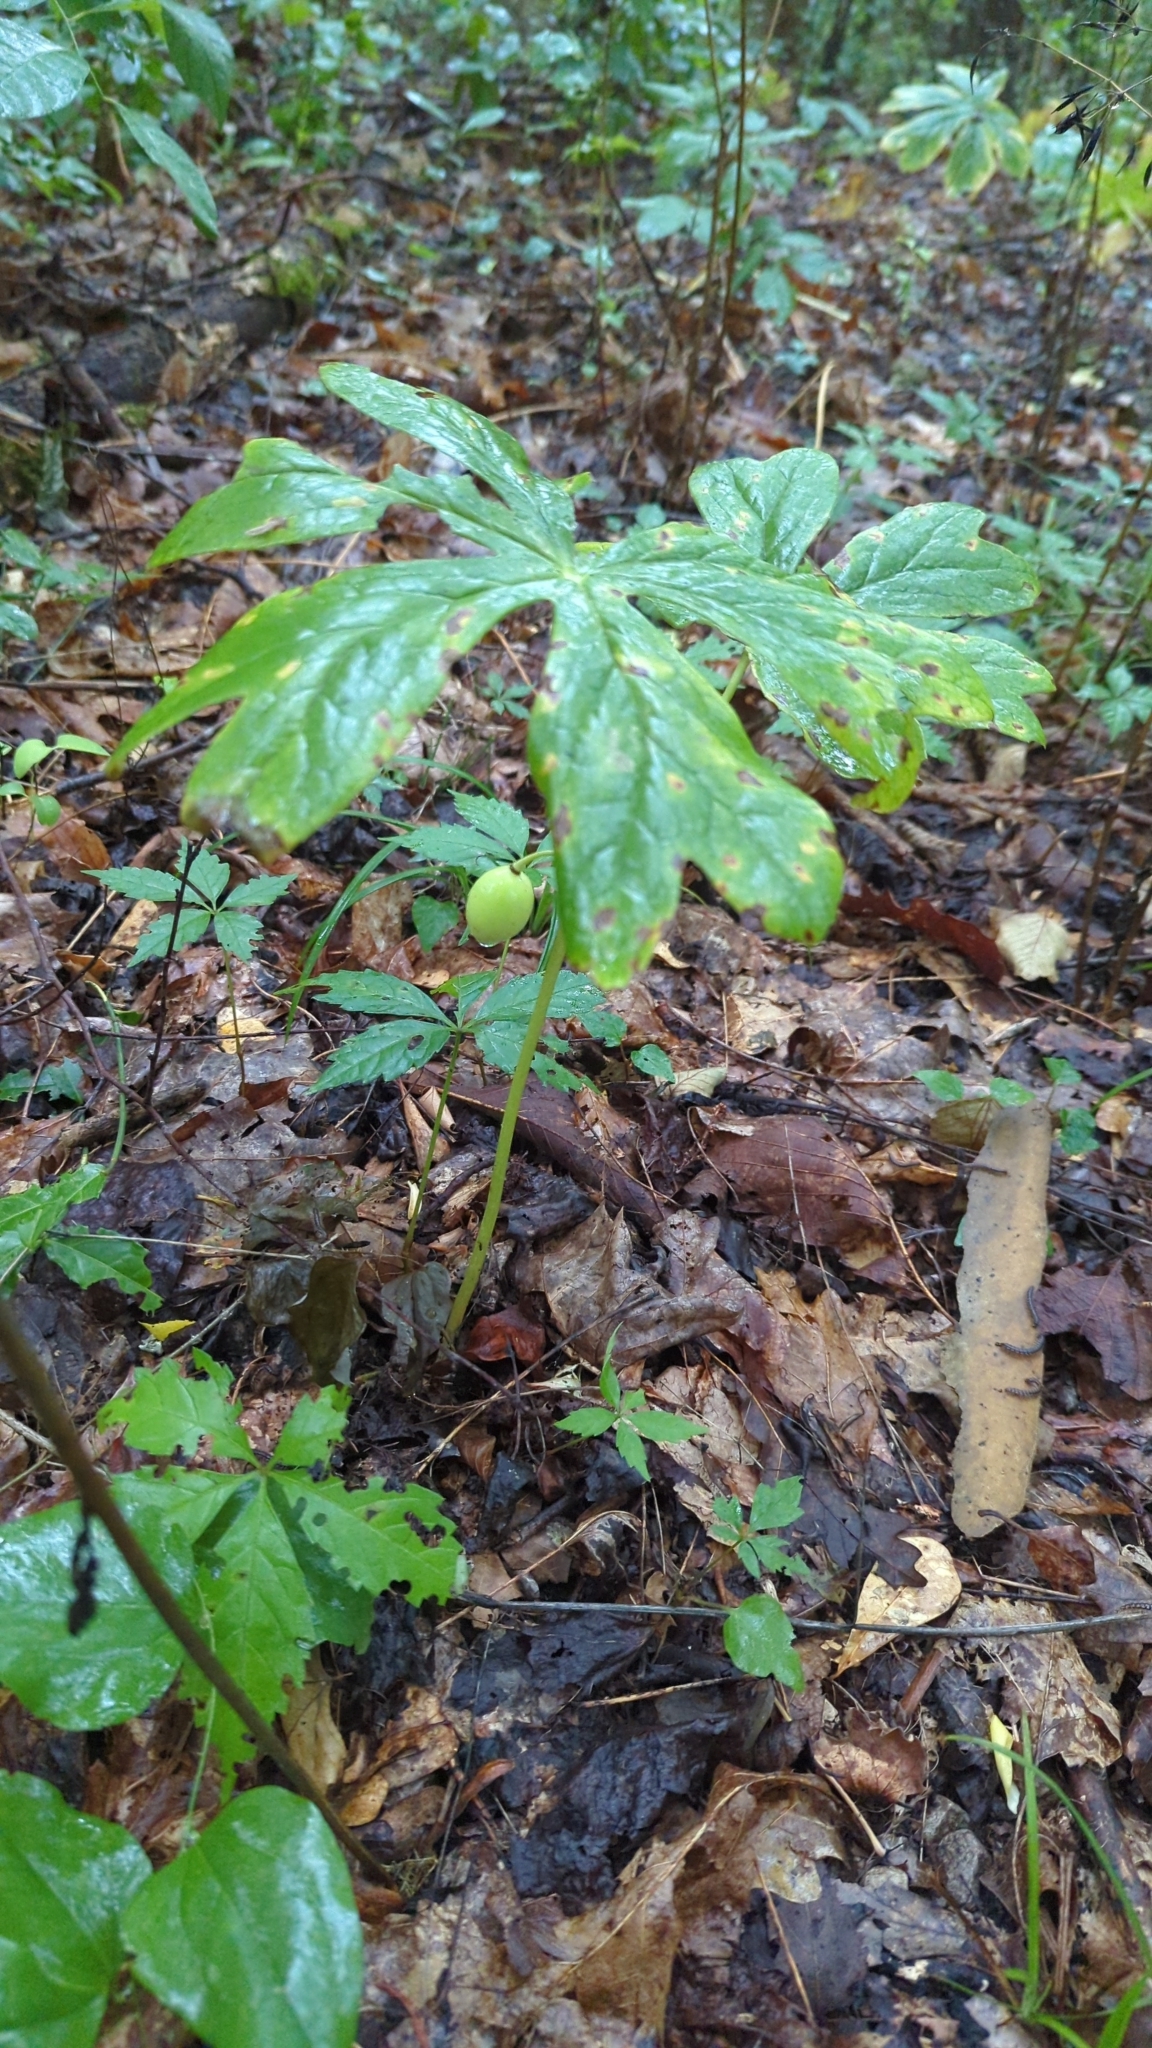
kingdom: Plantae
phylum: Tracheophyta
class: Magnoliopsida
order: Ranunculales
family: Berberidaceae
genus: Podophyllum
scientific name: Podophyllum peltatum
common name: Wild mandrake
